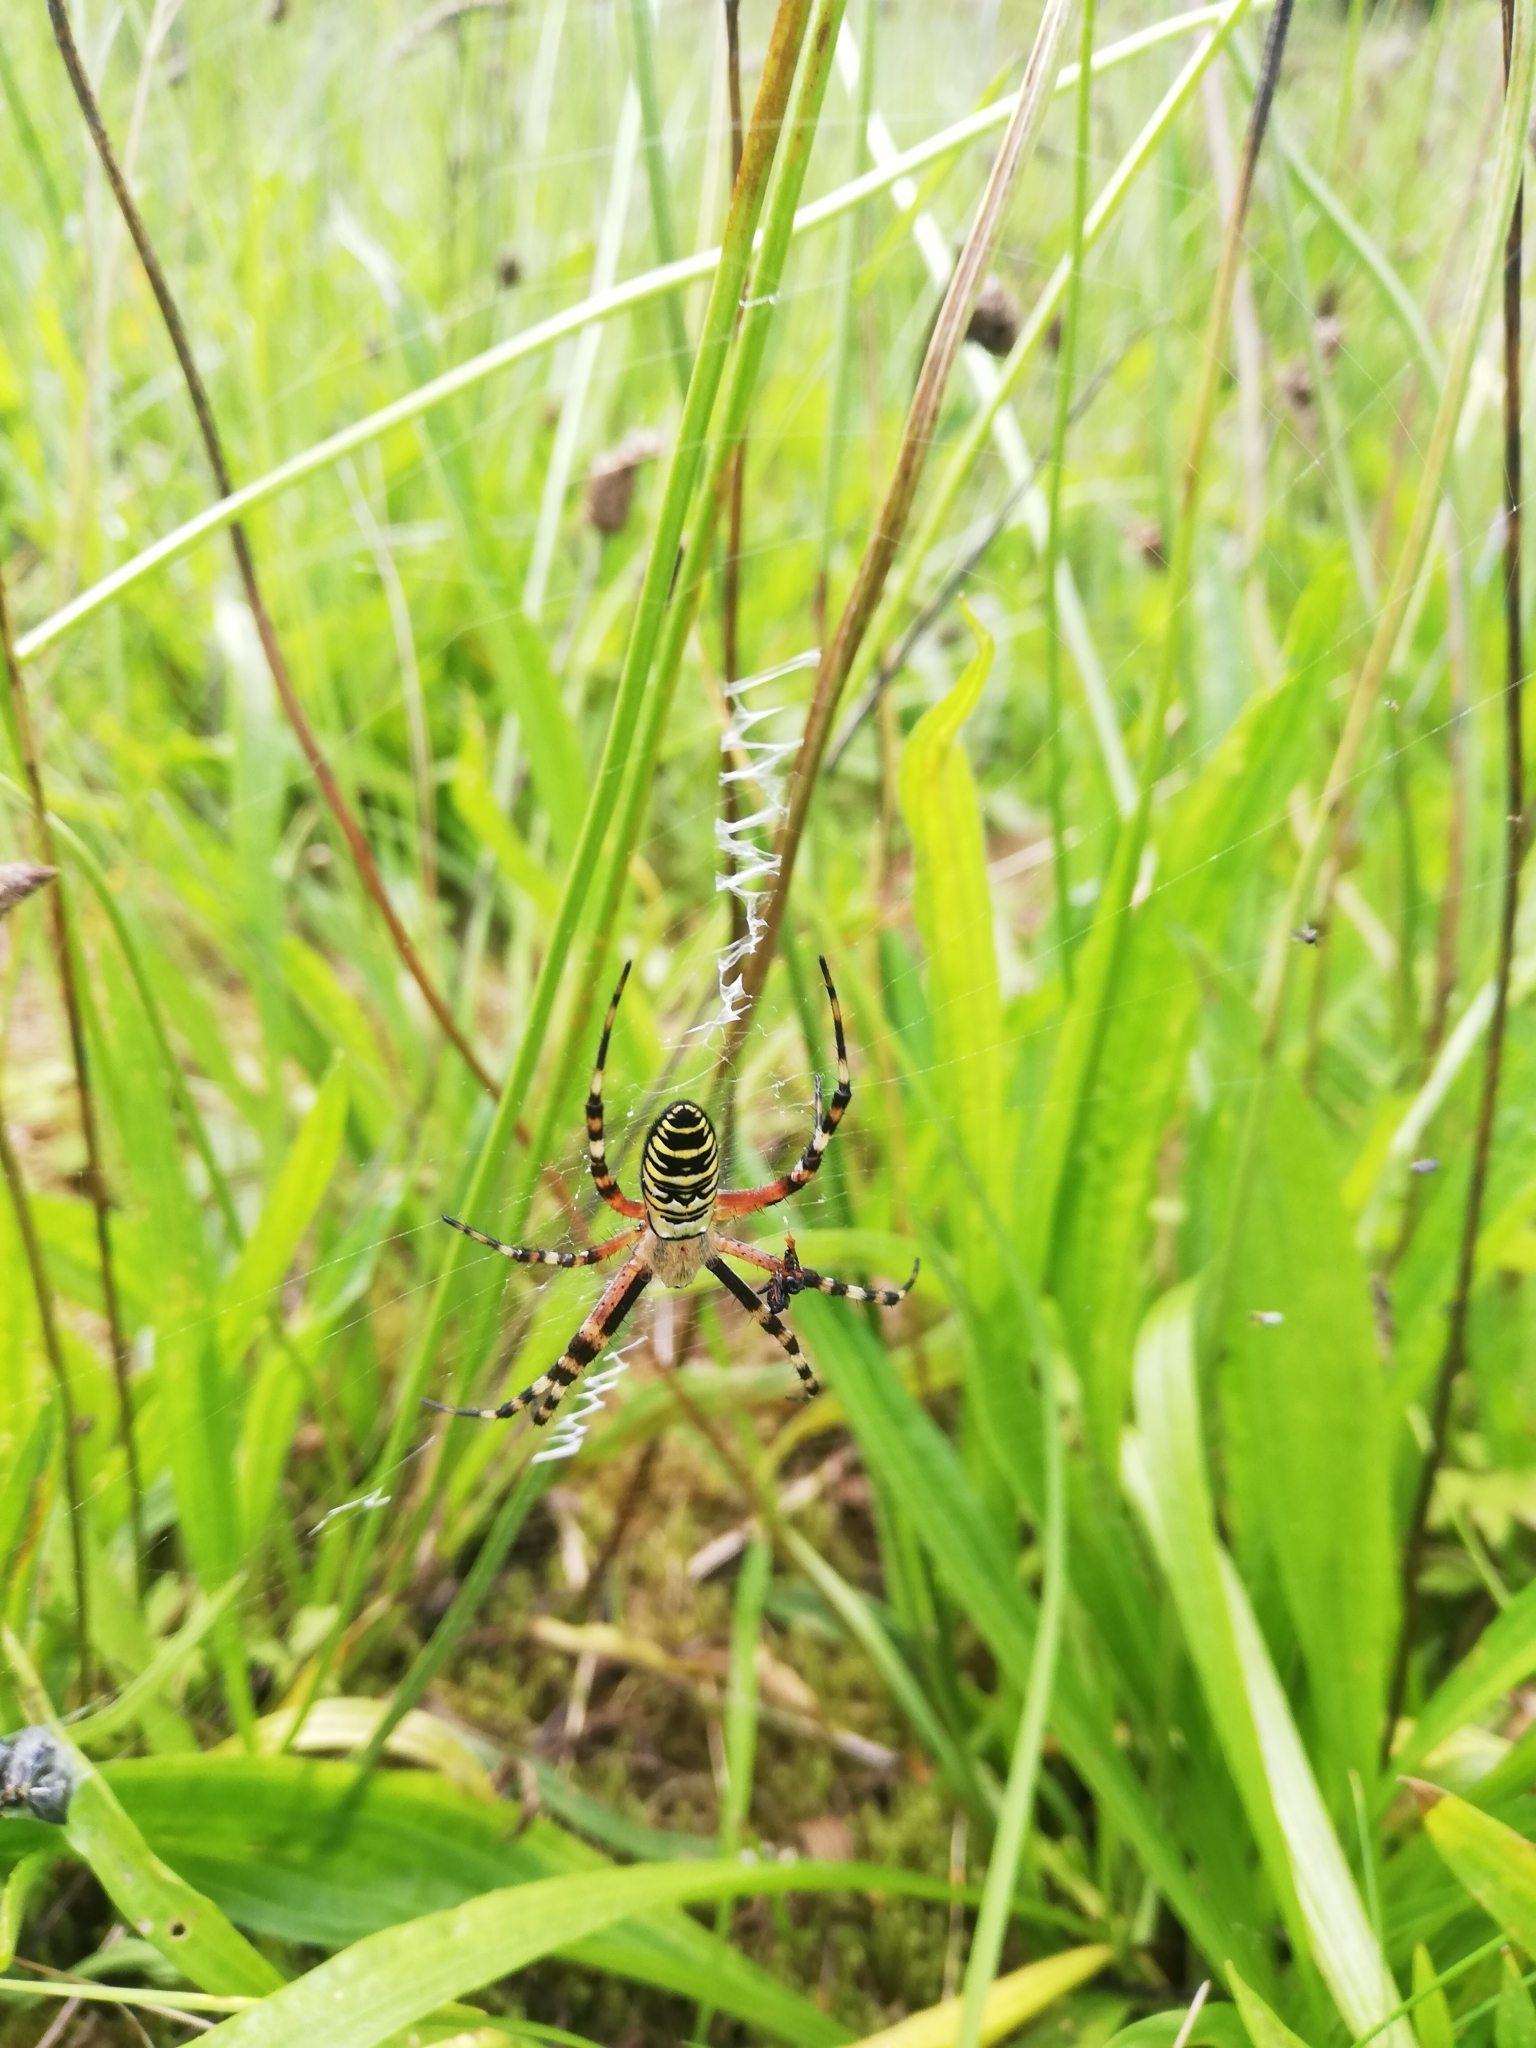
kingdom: Animalia
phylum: Arthropoda
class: Arachnida
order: Araneae
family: Araneidae
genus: Argiope
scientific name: Argiope bruennichi
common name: Wasp spider
